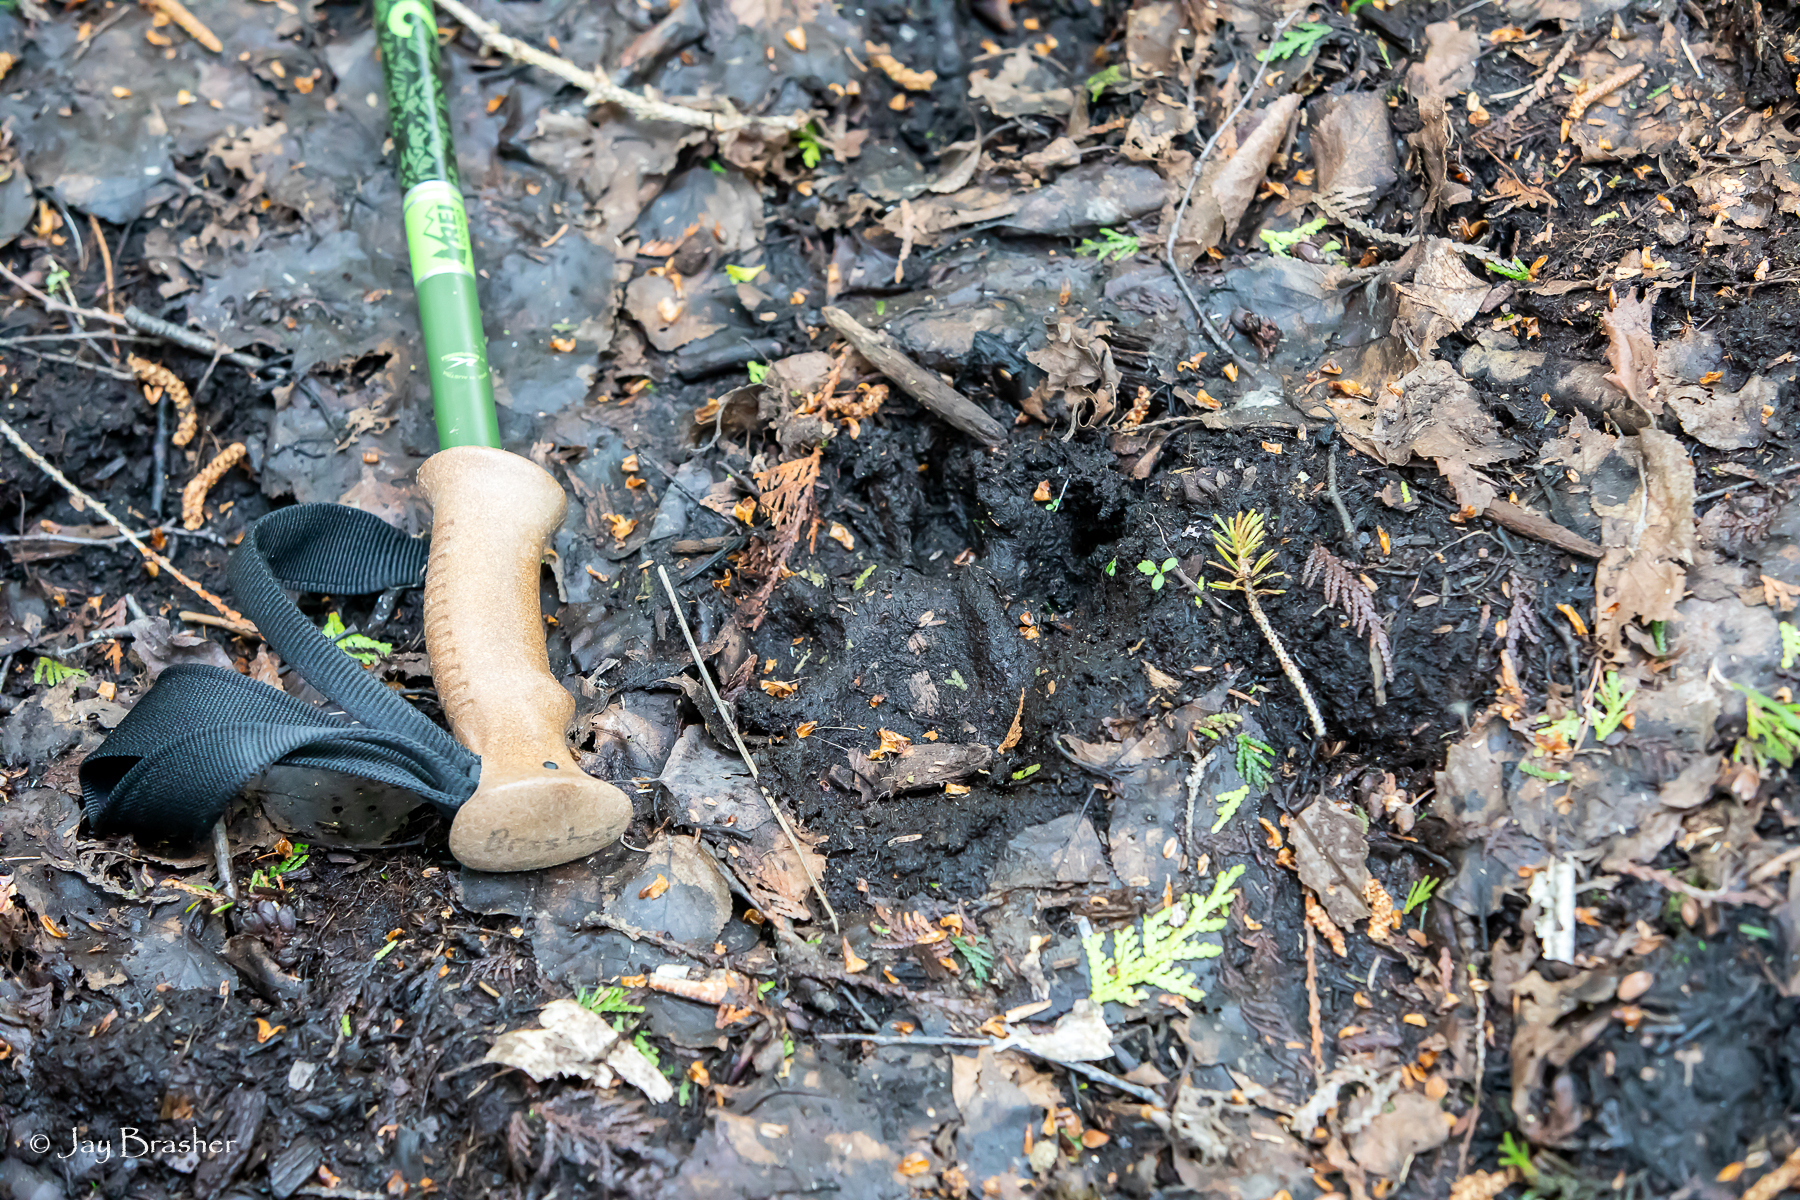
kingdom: Animalia
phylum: Chordata
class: Mammalia
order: Carnivora
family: Canidae
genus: Canis
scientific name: Canis lupus
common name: Gray wolf
